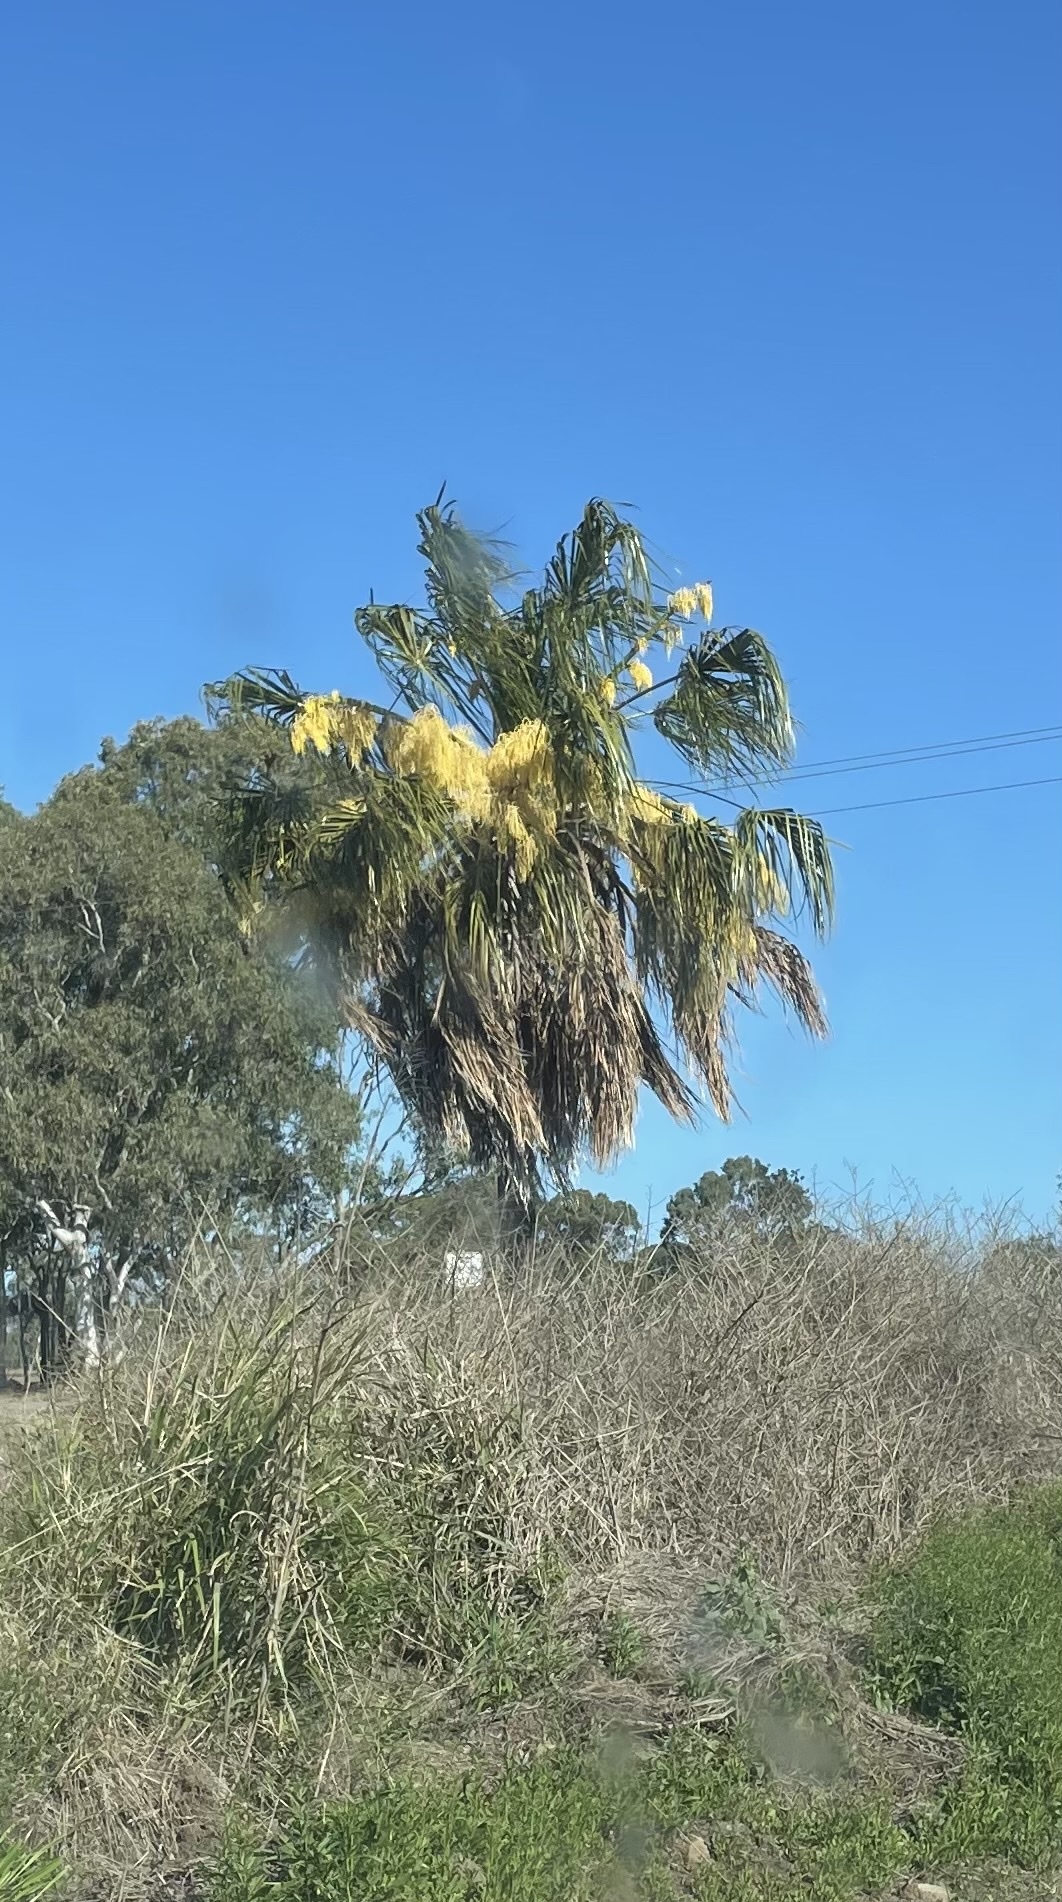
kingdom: Plantae
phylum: Tracheophyta
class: Liliopsida
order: Arecales
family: Arecaceae
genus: Livistona
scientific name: Livistona decora
